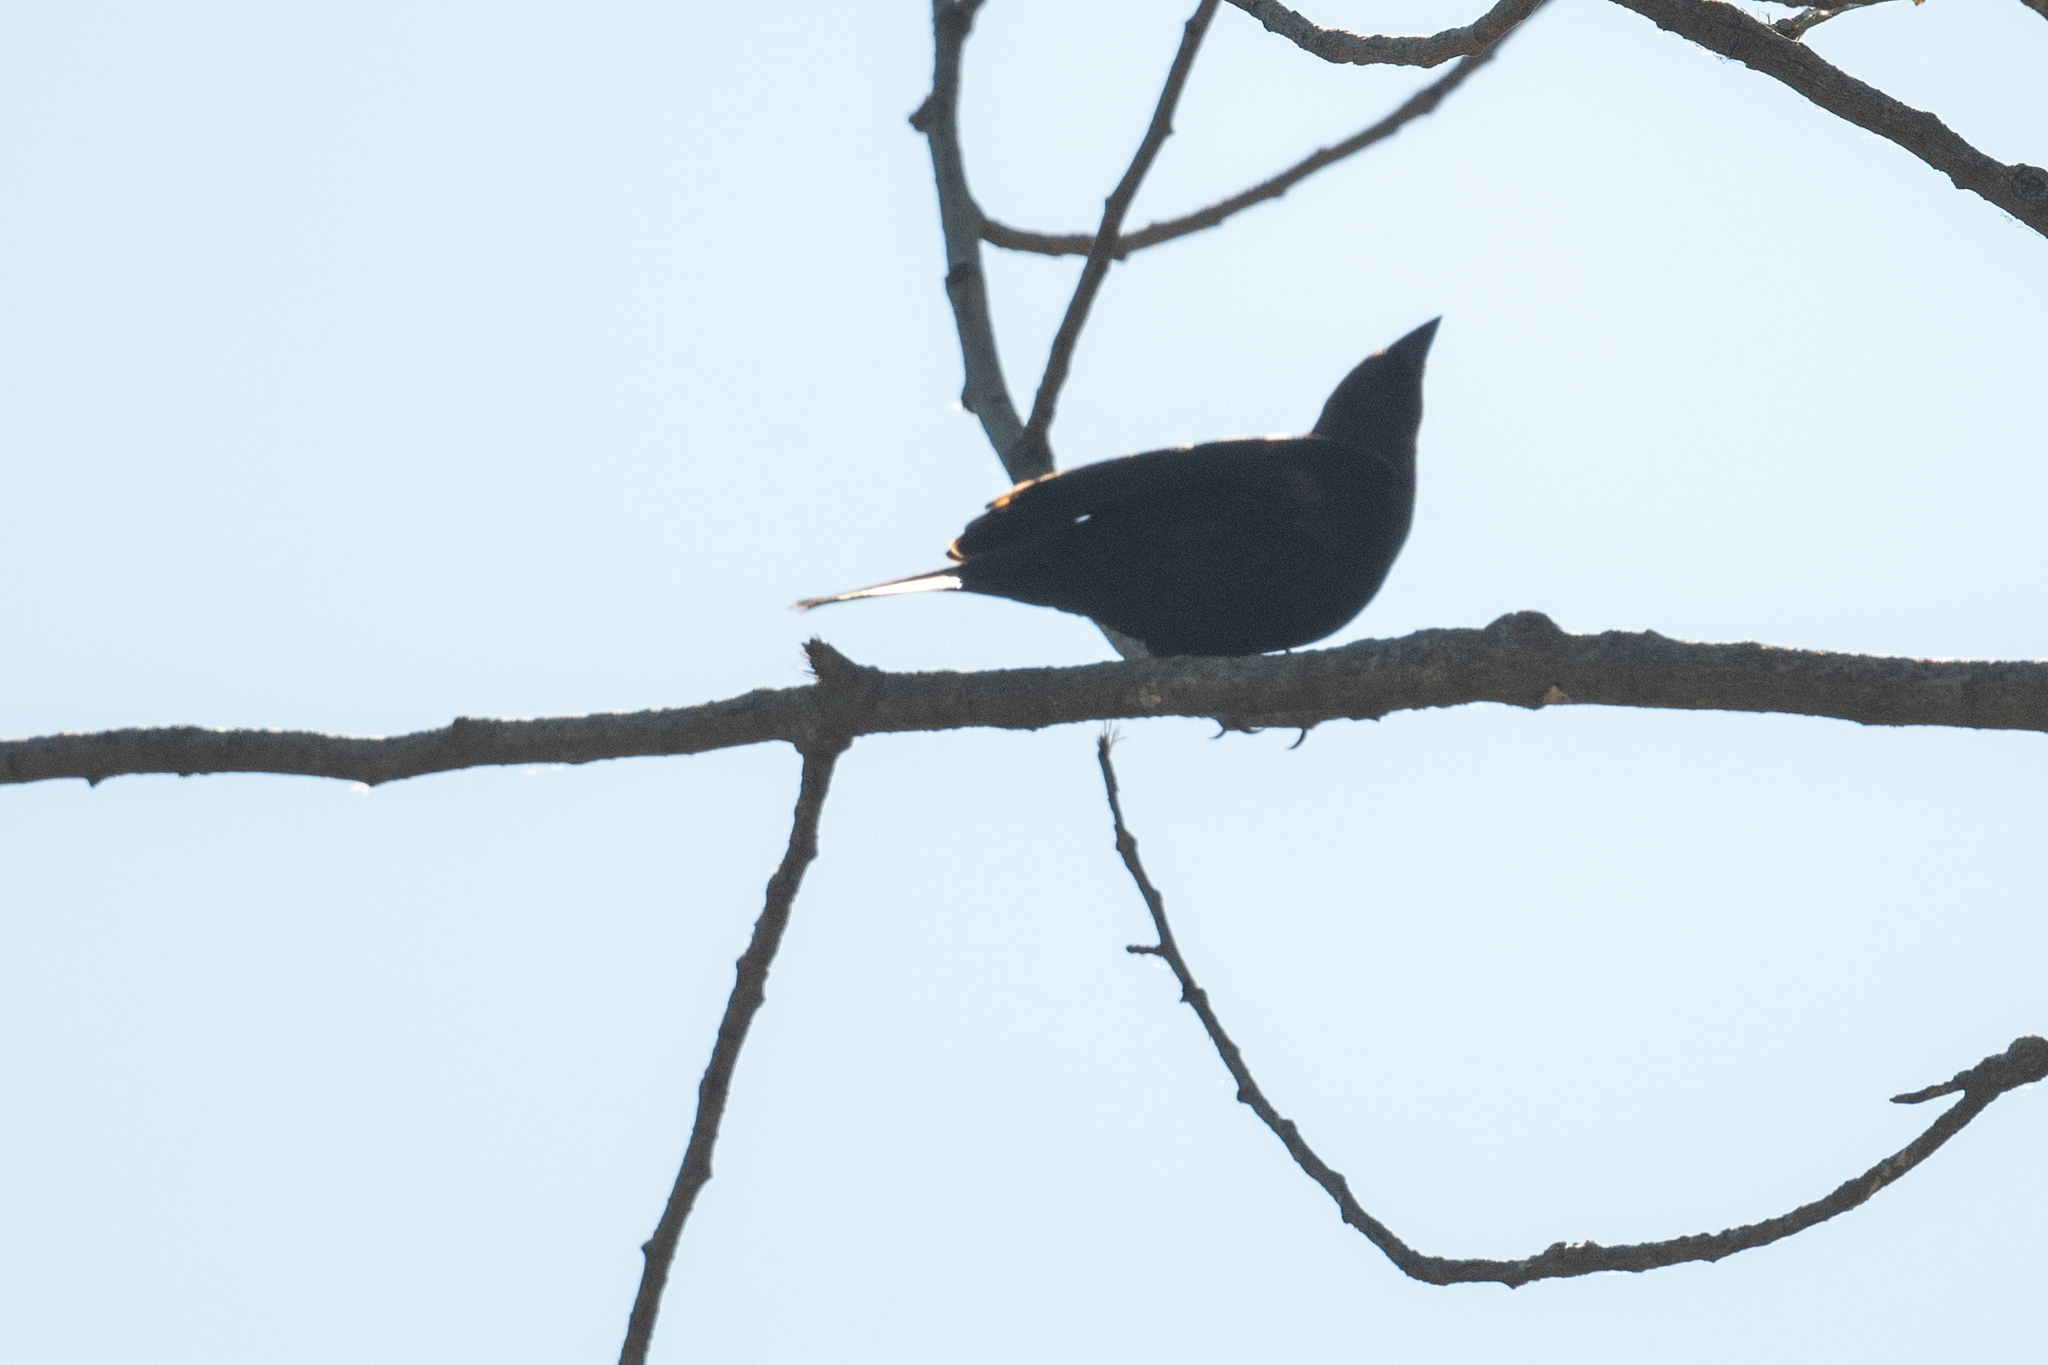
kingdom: Animalia
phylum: Chordata
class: Aves
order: Passeriformes
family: Icteridae
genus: Molothrus
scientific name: Molothrus ater
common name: Brown-headed cowbird
